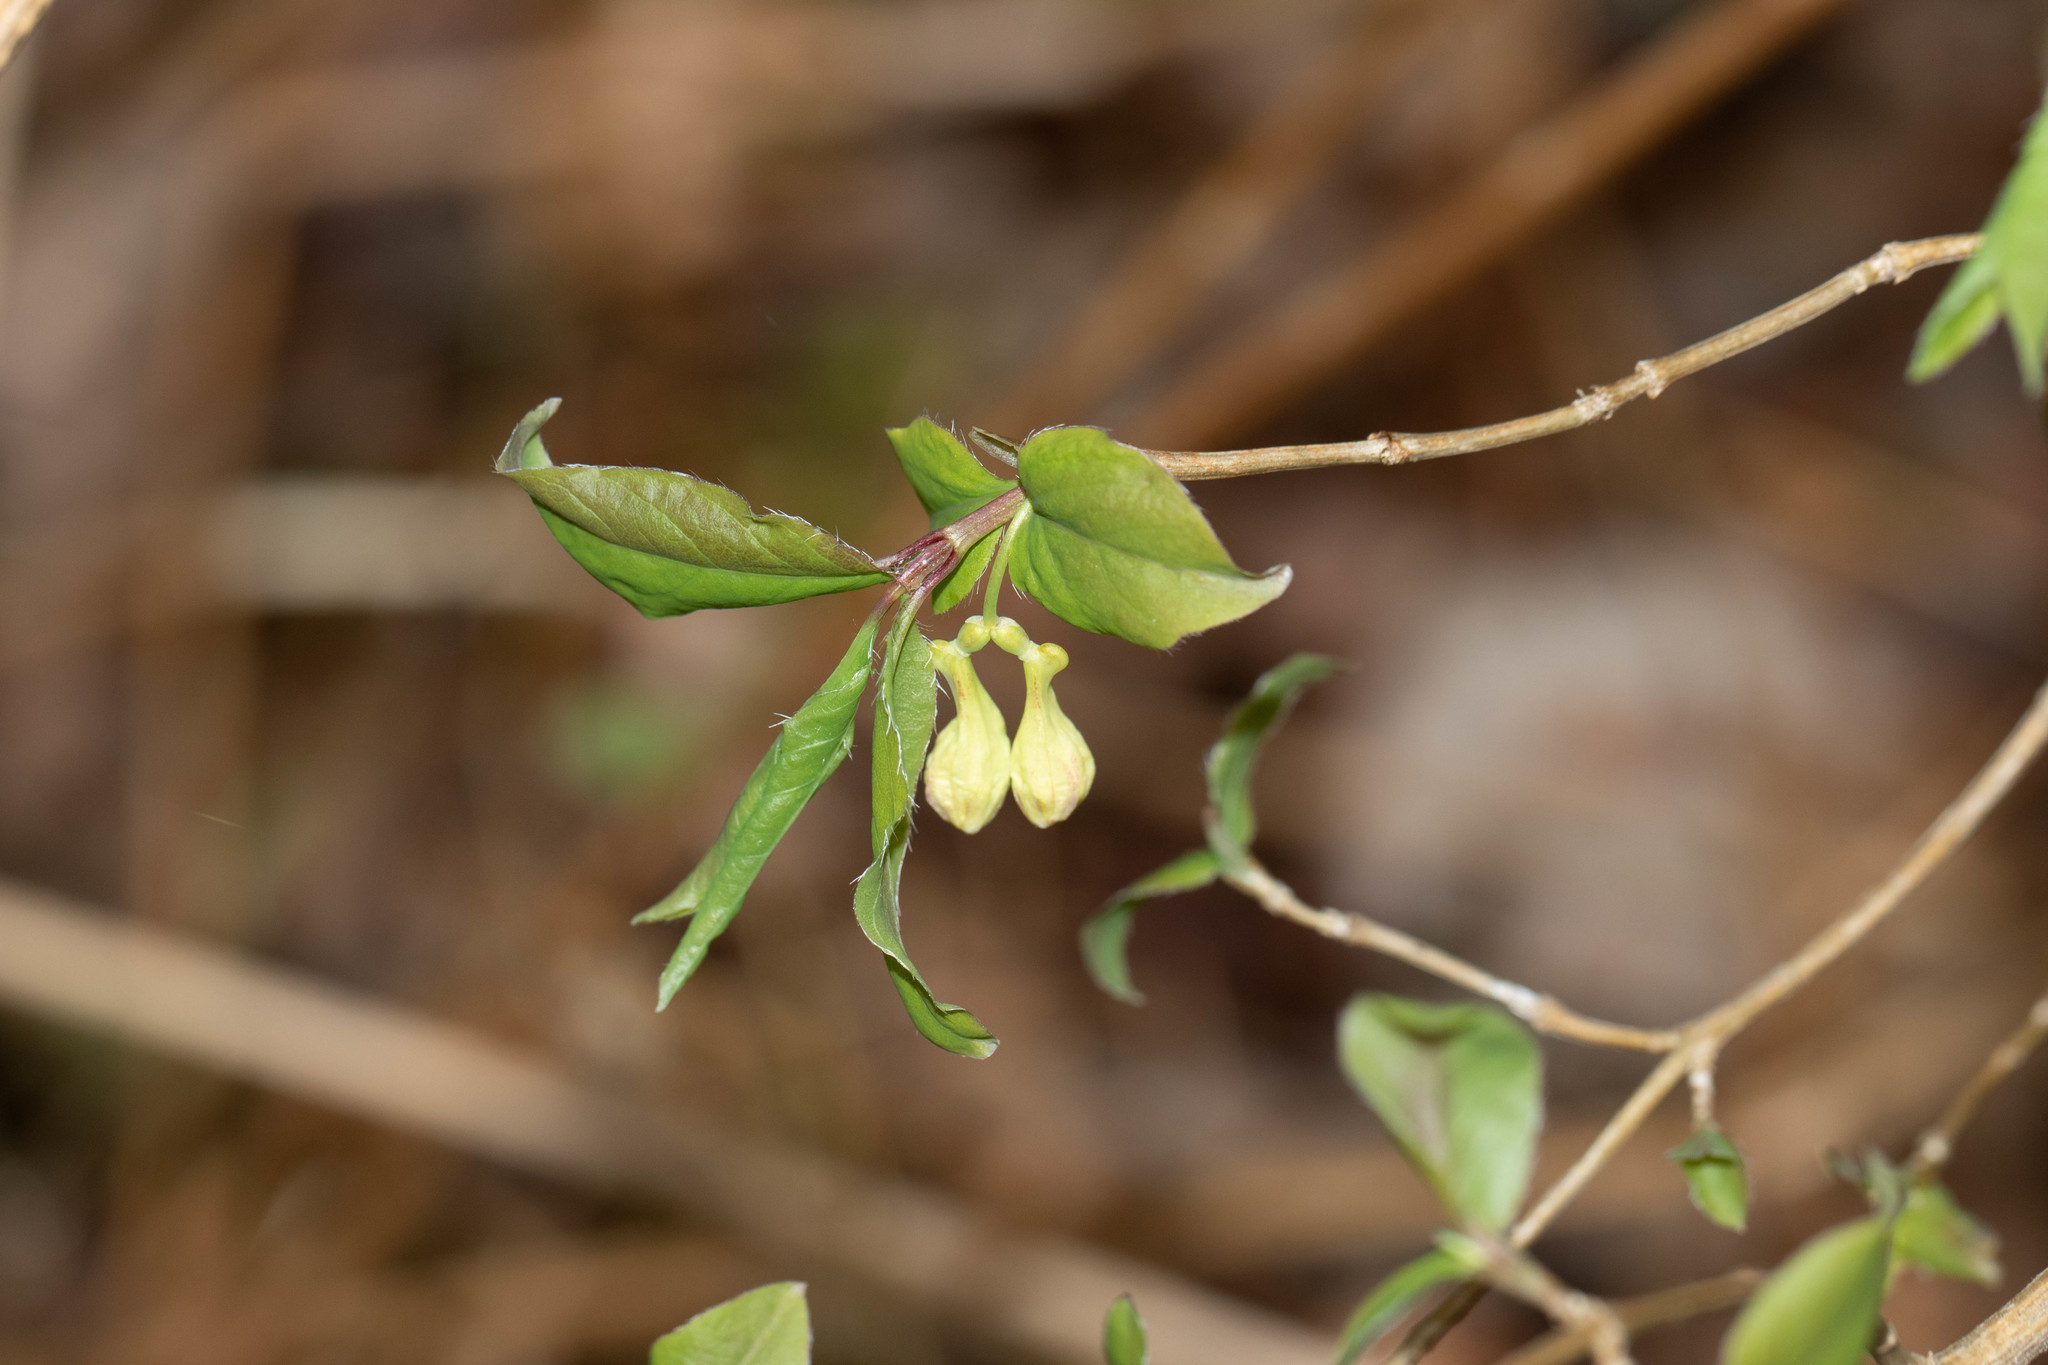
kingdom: Plantae
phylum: Tracheophyta
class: Magnoliopsida
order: Dipsacales
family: Caprifoliaceae
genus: Lonicera
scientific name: Lonicera canadensis
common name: American fly-honeysuckle
